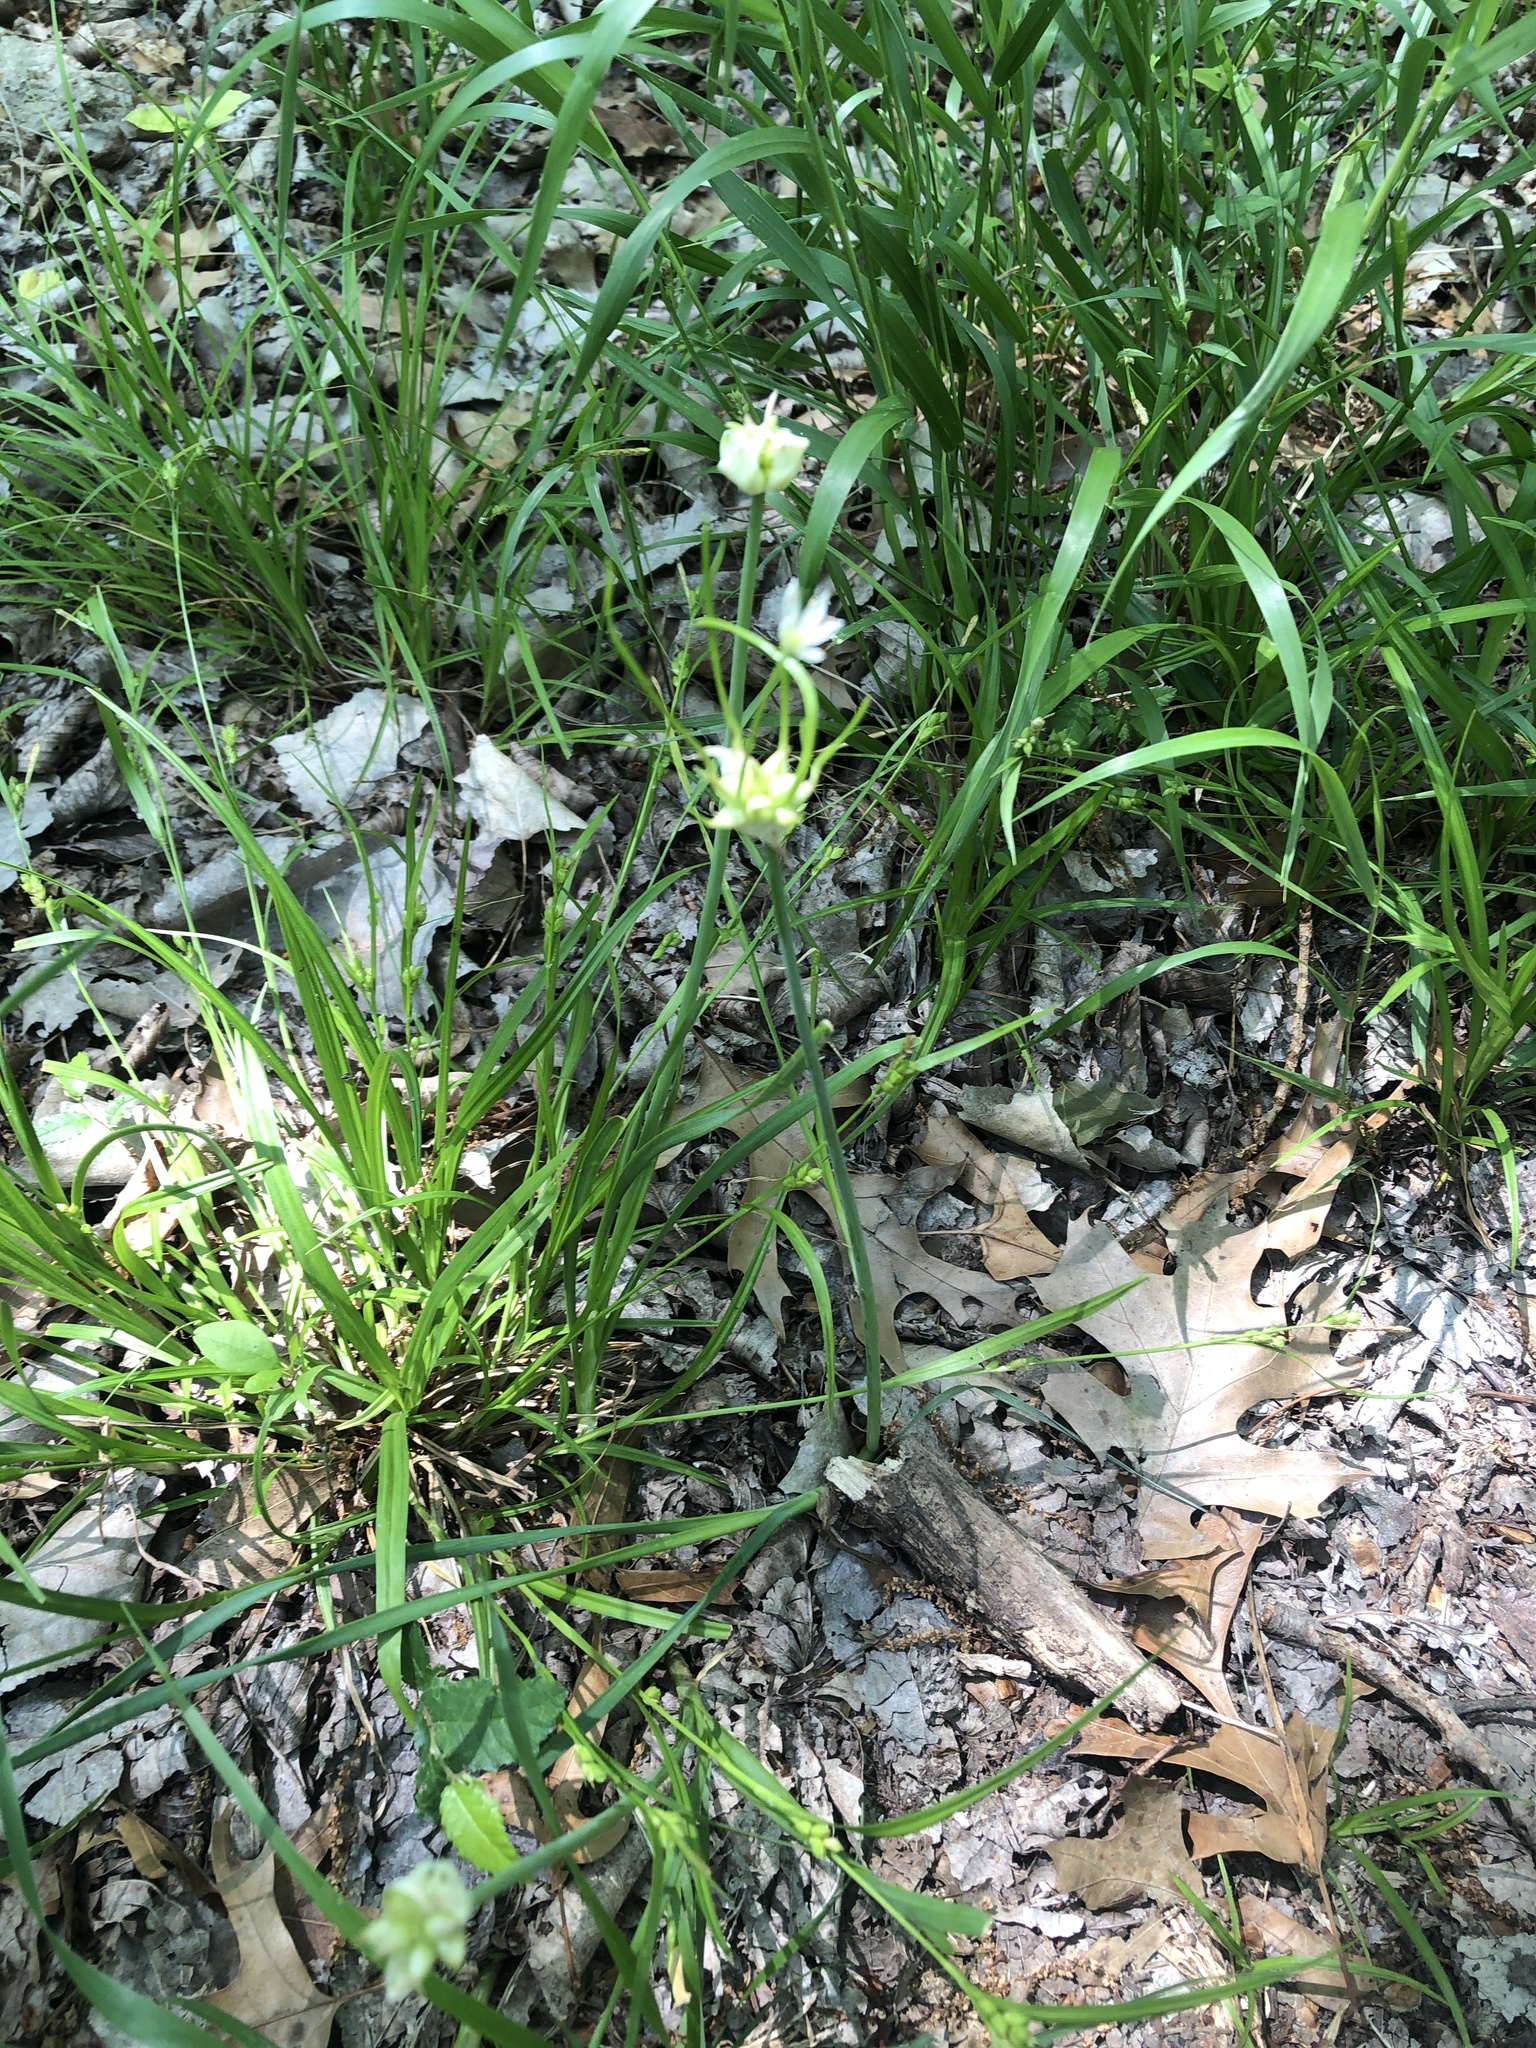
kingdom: Plantae
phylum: Tracheophyta
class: Liliopsida
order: Asparagales
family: Amaryllidaceae
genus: Allium
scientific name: Allium canadense
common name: Meadow garlic
